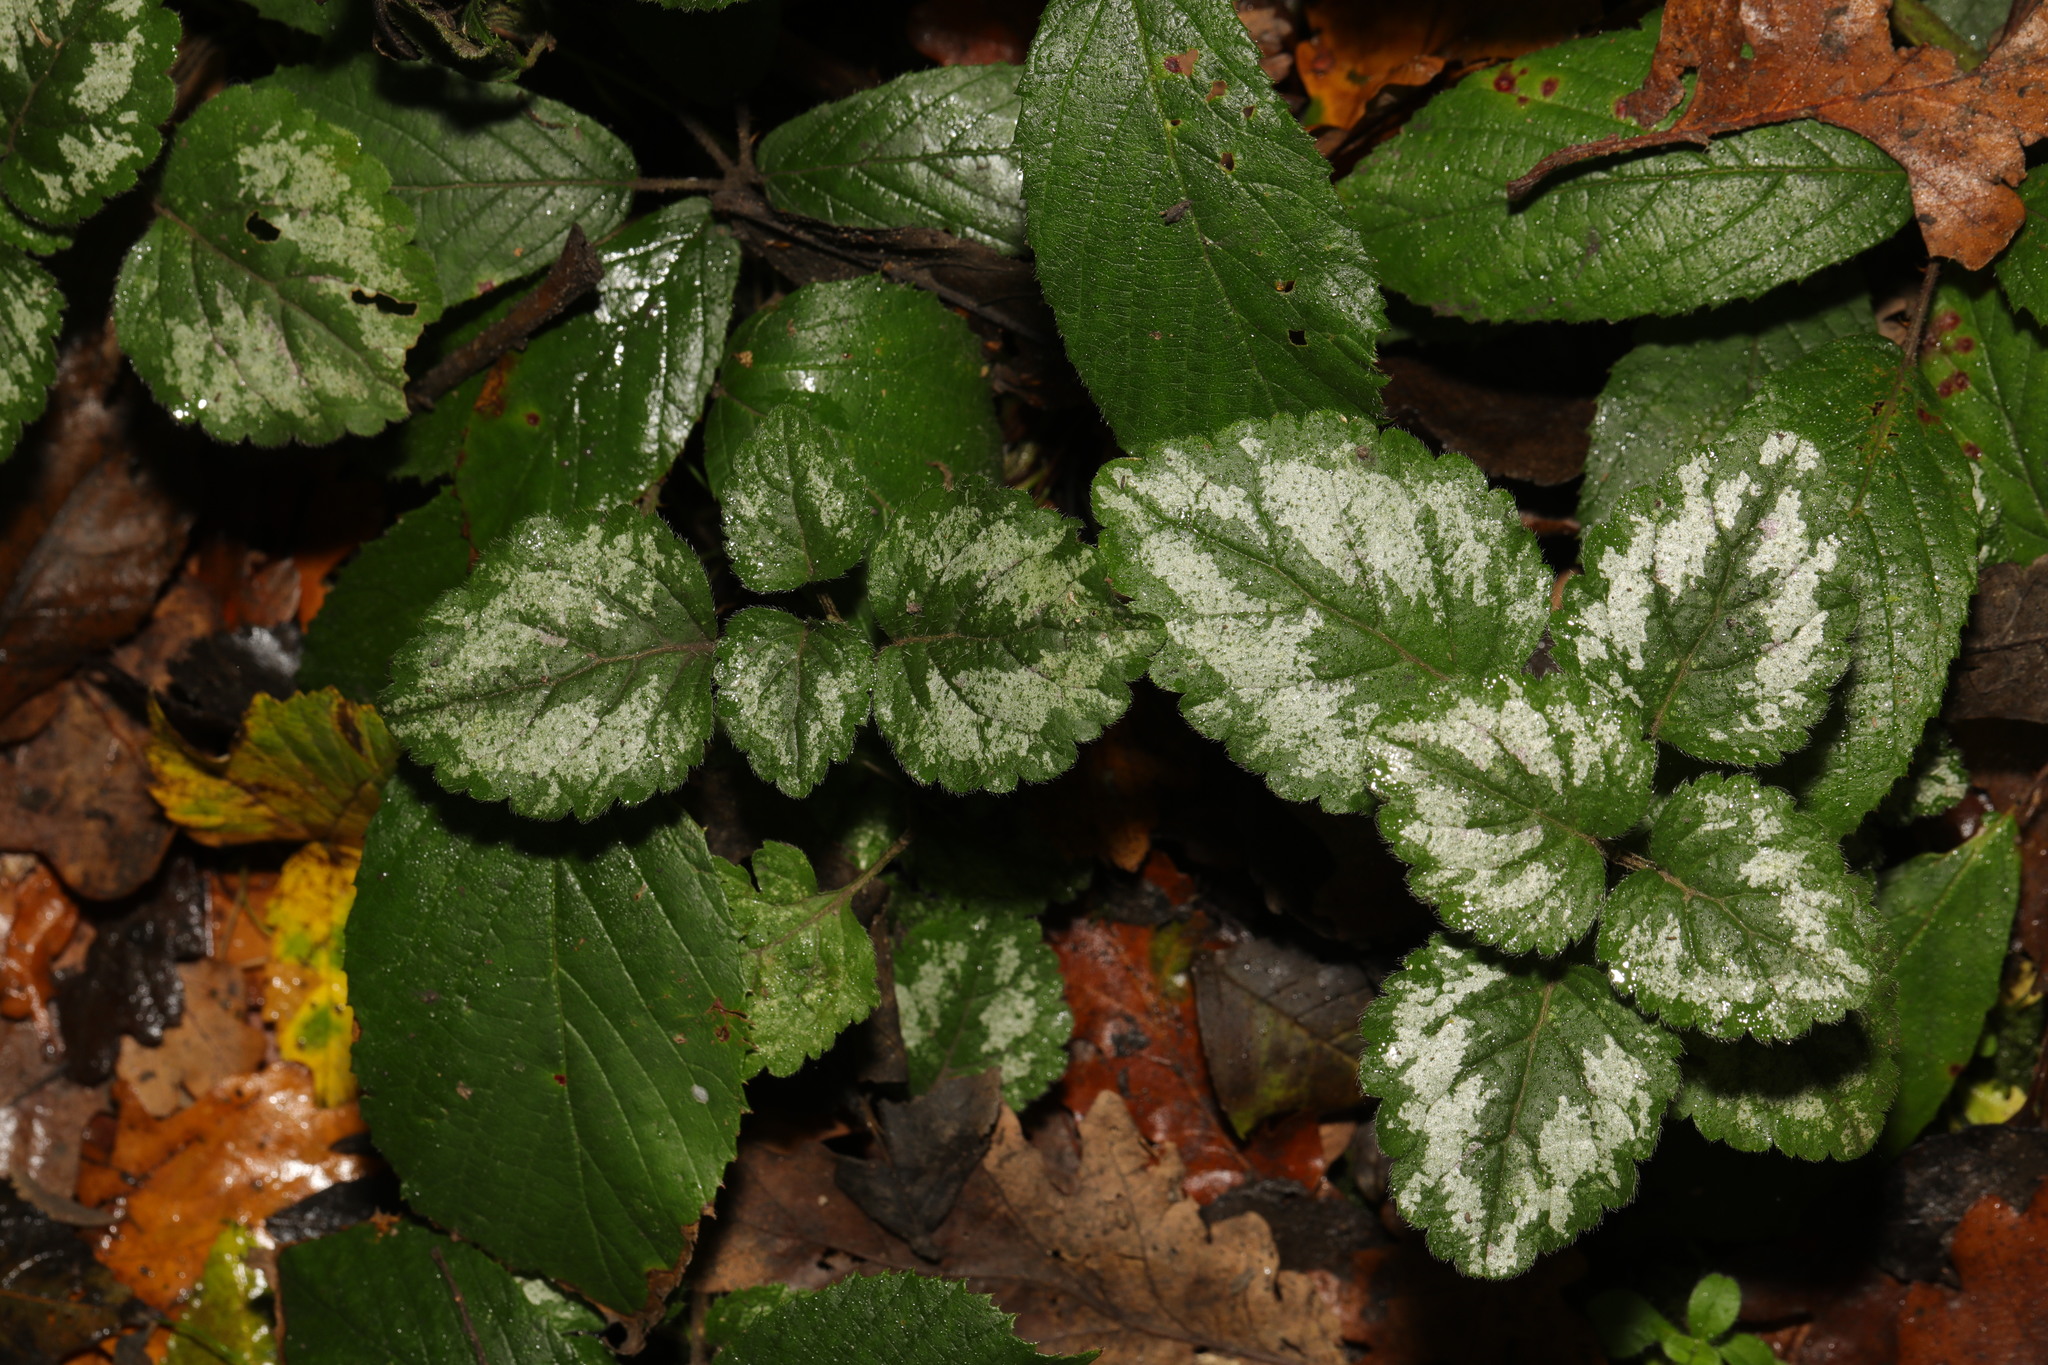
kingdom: Plantae
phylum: Tracheophyta
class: Magnoliopsida
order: Lamiales
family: Lamiaceae
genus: Lamium
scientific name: Lamium galeobdolon
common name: Yellow archangel
